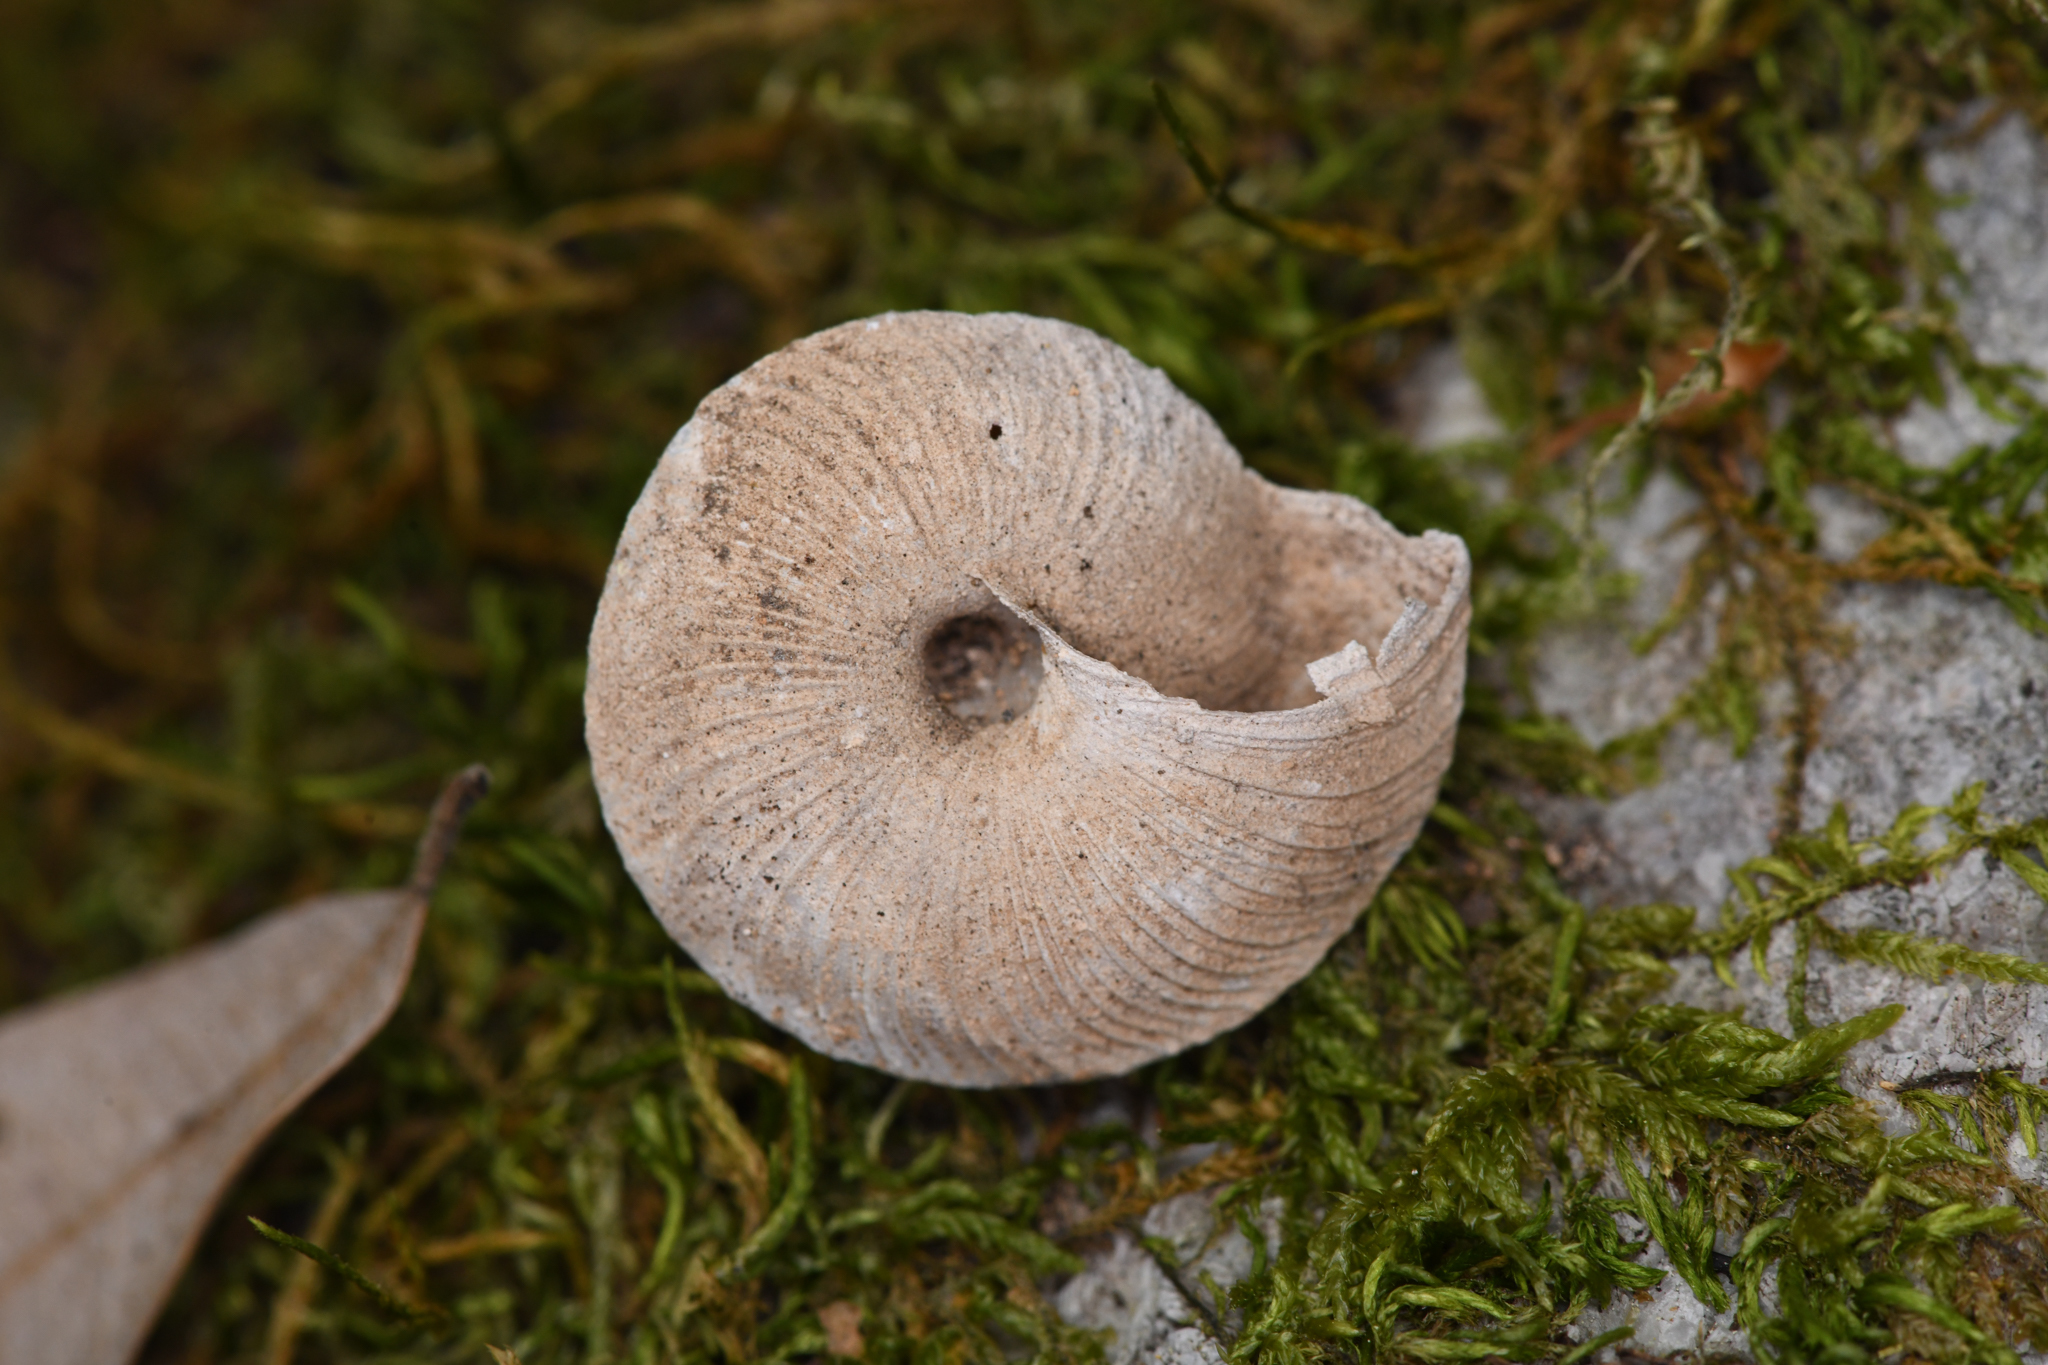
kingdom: Animalia
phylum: Mollusca
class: Gastropoda
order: Stylommatophora
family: Xanthonychidae
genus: Monadenia
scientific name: Monadenia circumcarinata
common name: Keeled sideband
